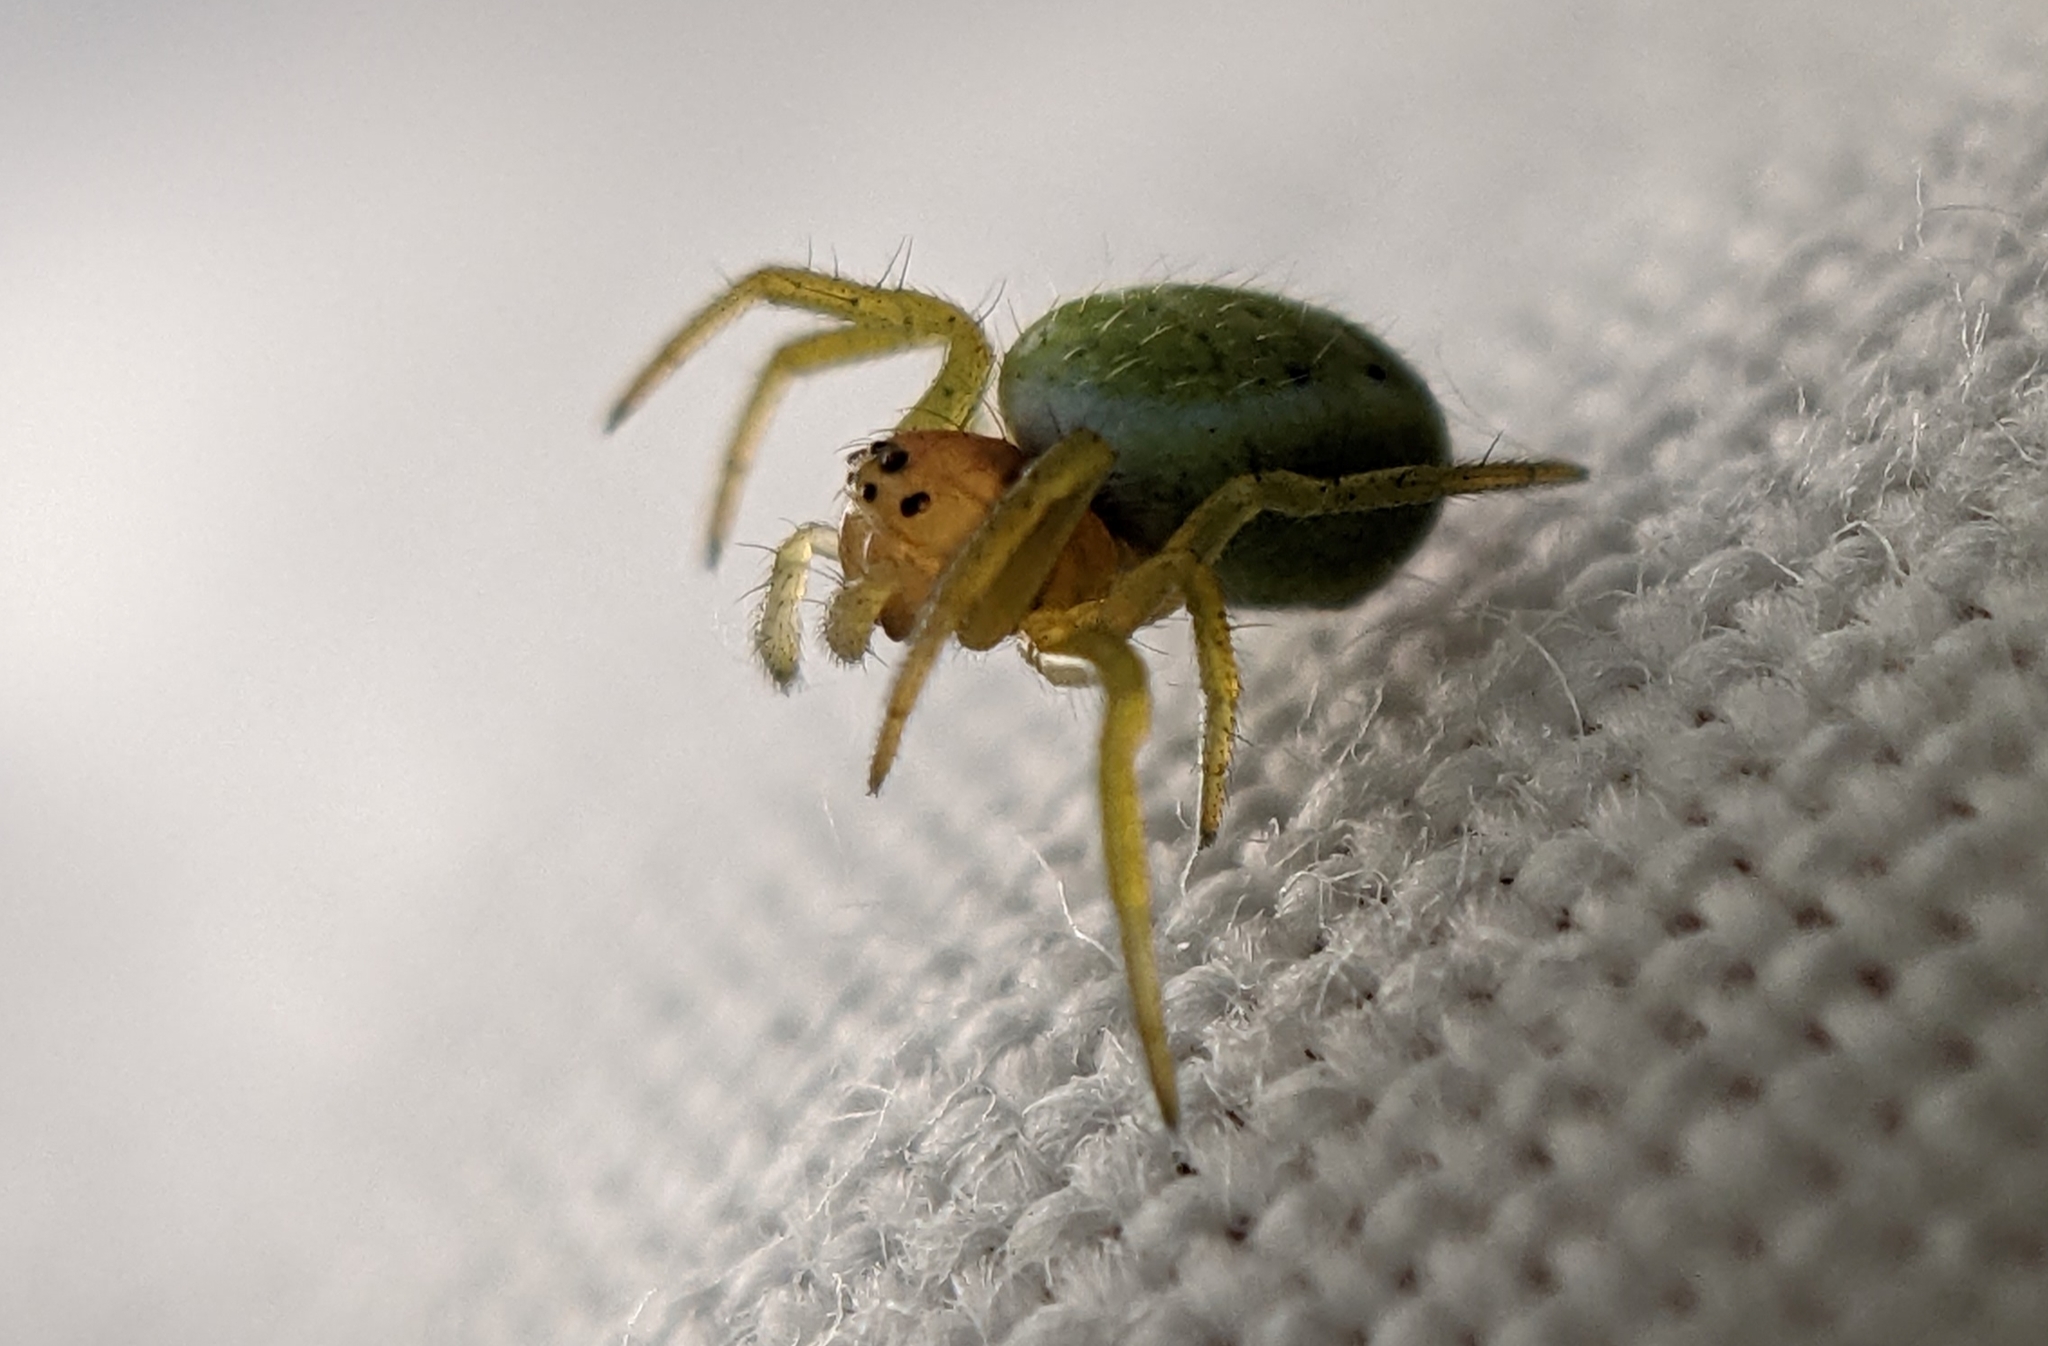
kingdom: Animalia
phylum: Arthropoda
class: Arachnida
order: Araneae
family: Araneidae
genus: Araniella
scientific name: Araniella
